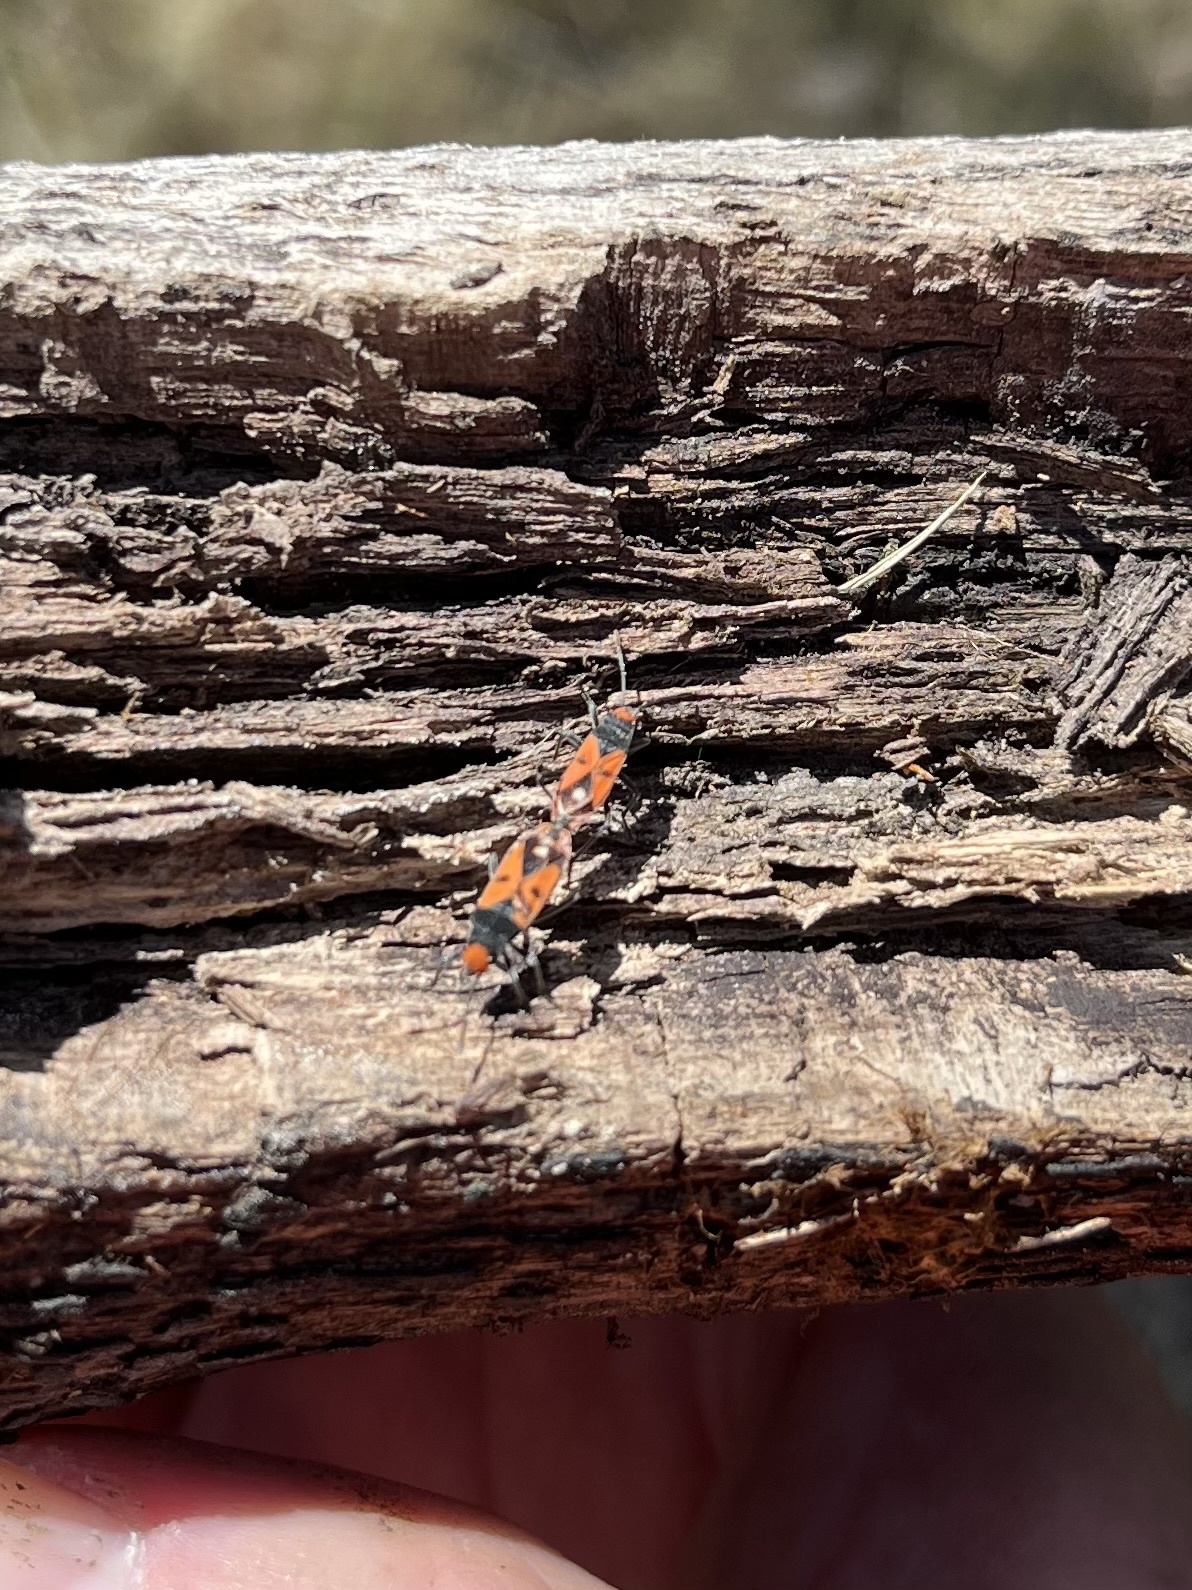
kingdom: Animalia
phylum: Arthropoda
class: Insecta
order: Hemiptera
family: Lygaeidae
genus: Melanerythrus
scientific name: Melanerythrus biguttatus
